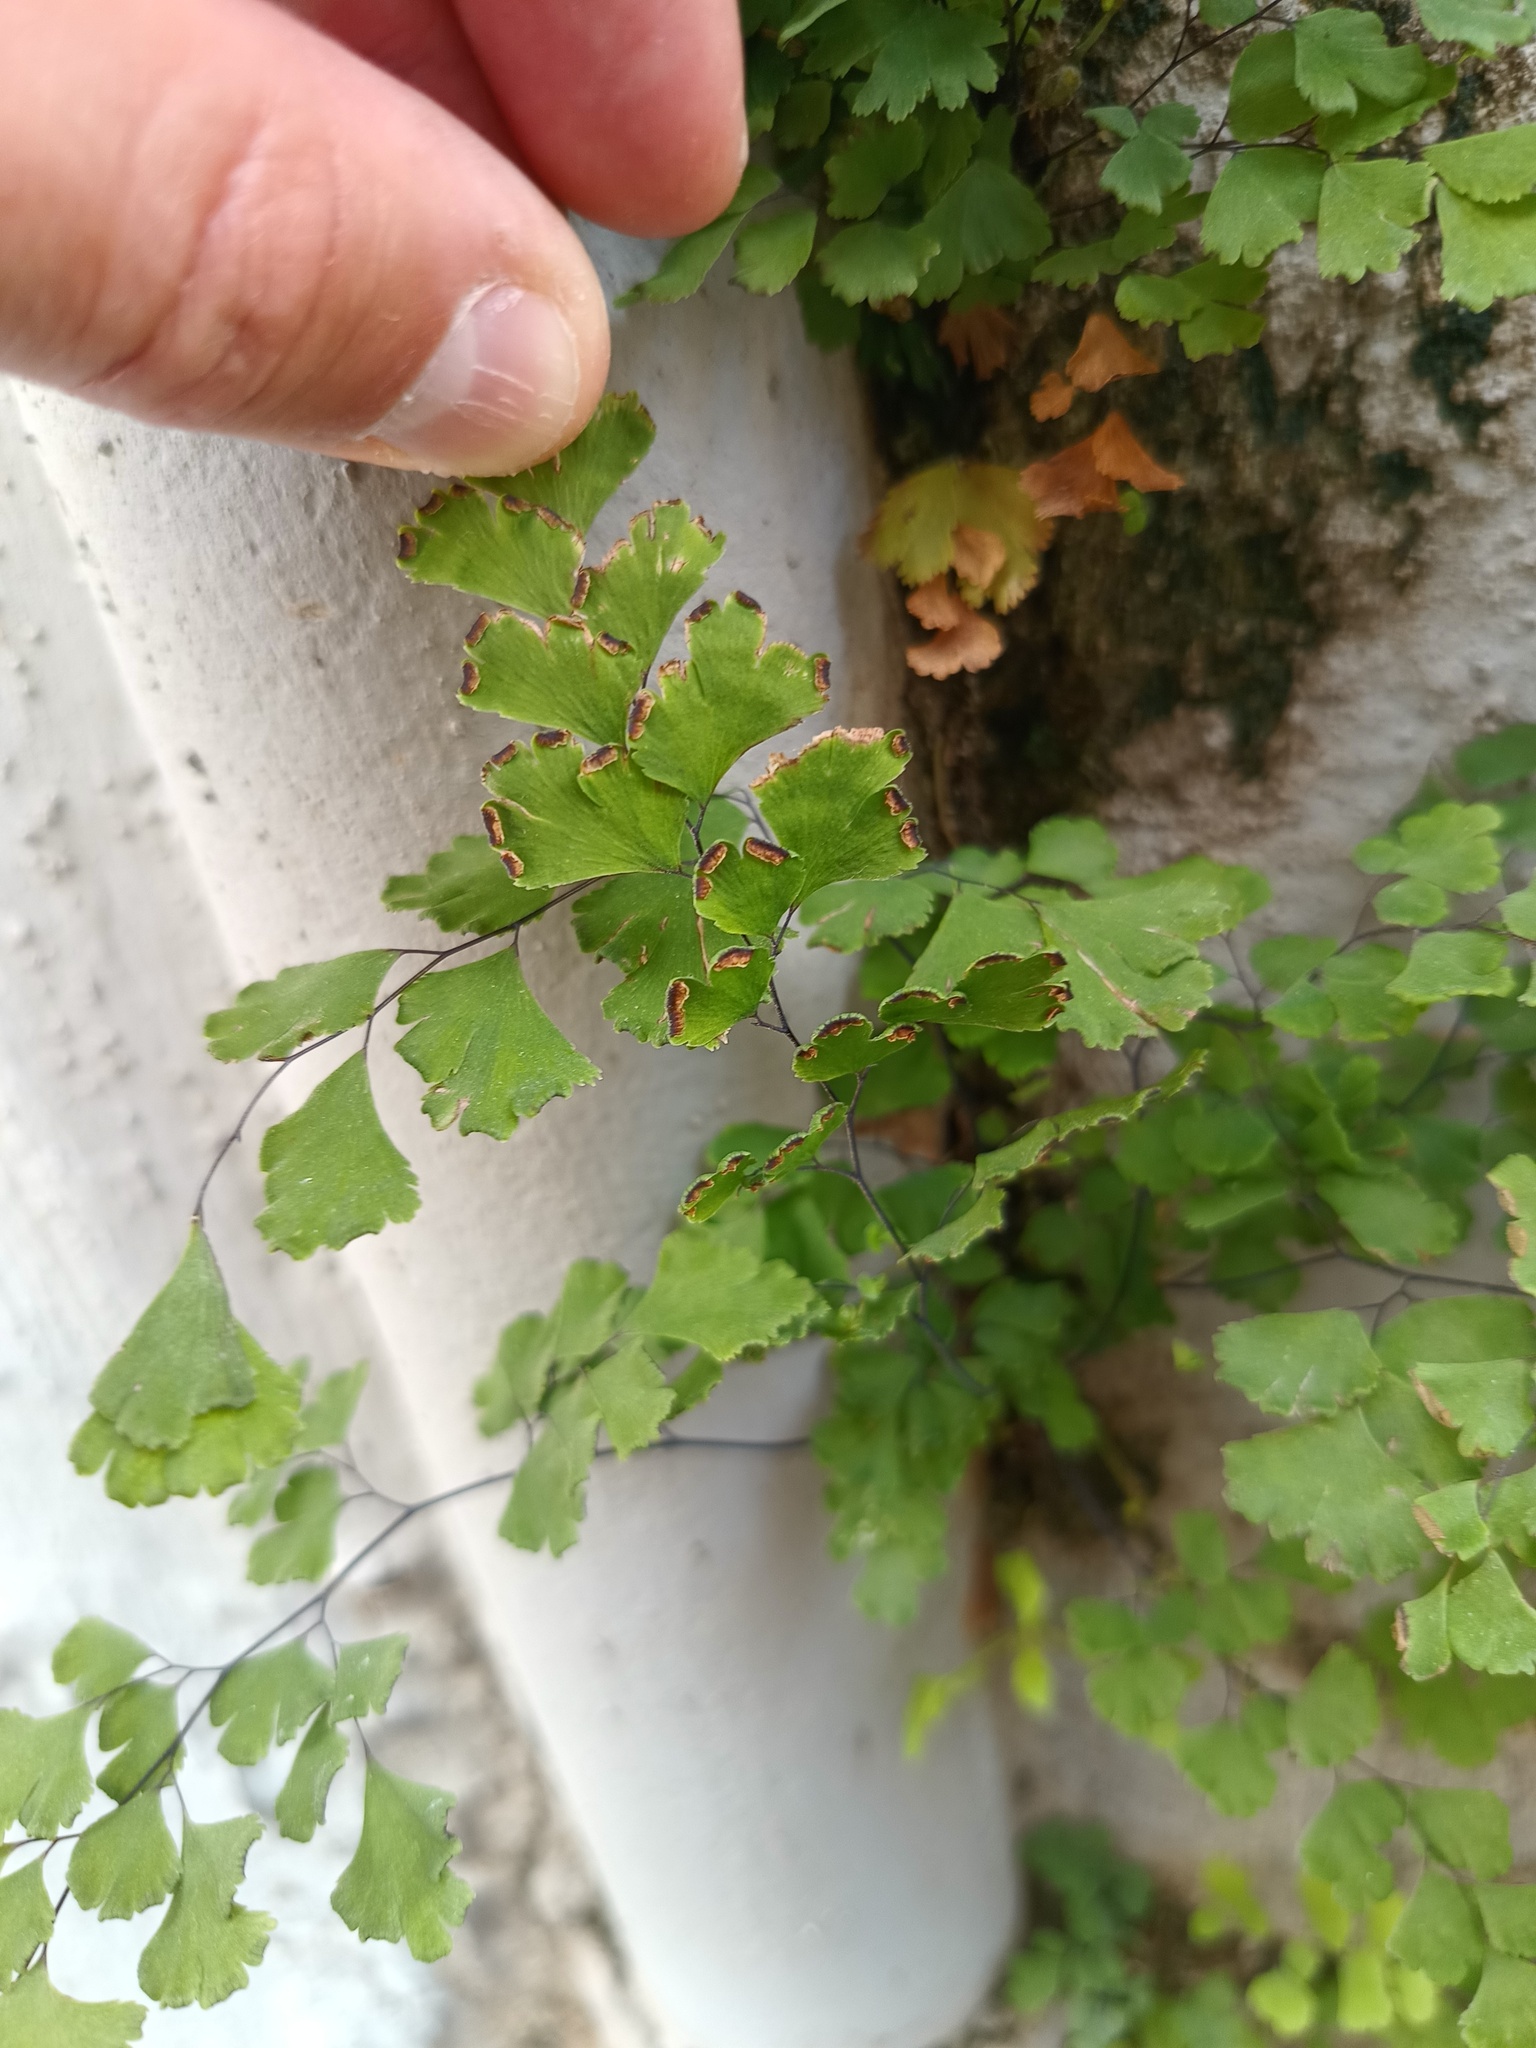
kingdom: Plantae
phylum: Tracheophyta
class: Polypodiopsida
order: Polypodiales
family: Pteridaceae
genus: Adiantum
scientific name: Adiantum capillus-veneris
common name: Maidenhair fern
